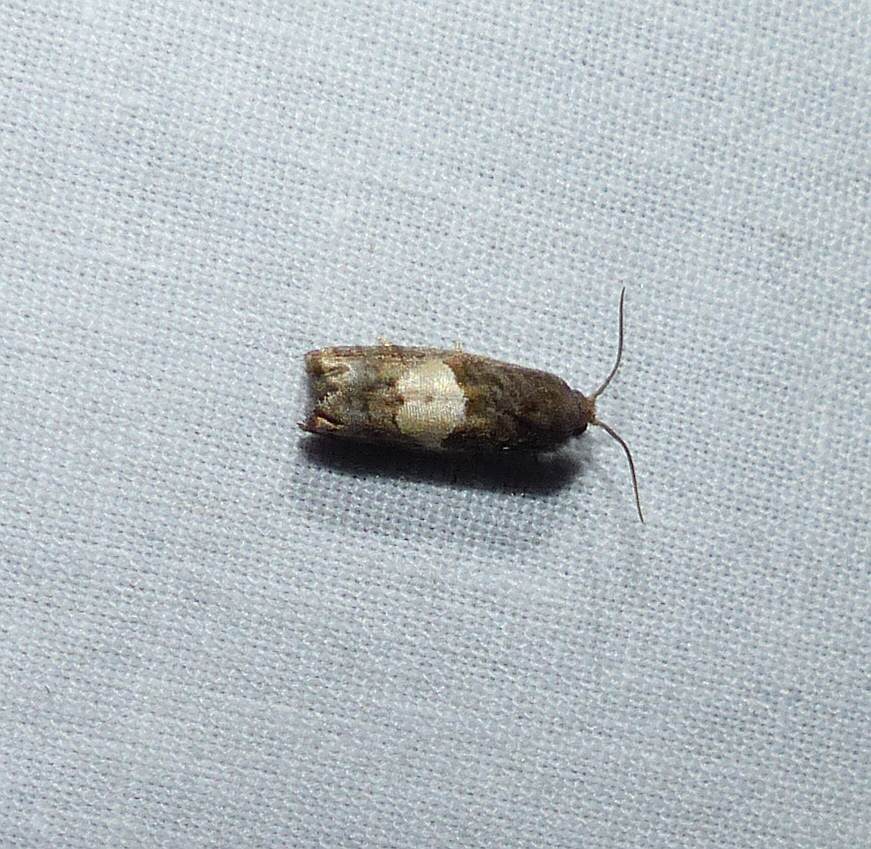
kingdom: Animalia
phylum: Arthropoda
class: Insecta
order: Lepidoptera
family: Tortricidae
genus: Epiblema
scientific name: Epiblema walsinghami
